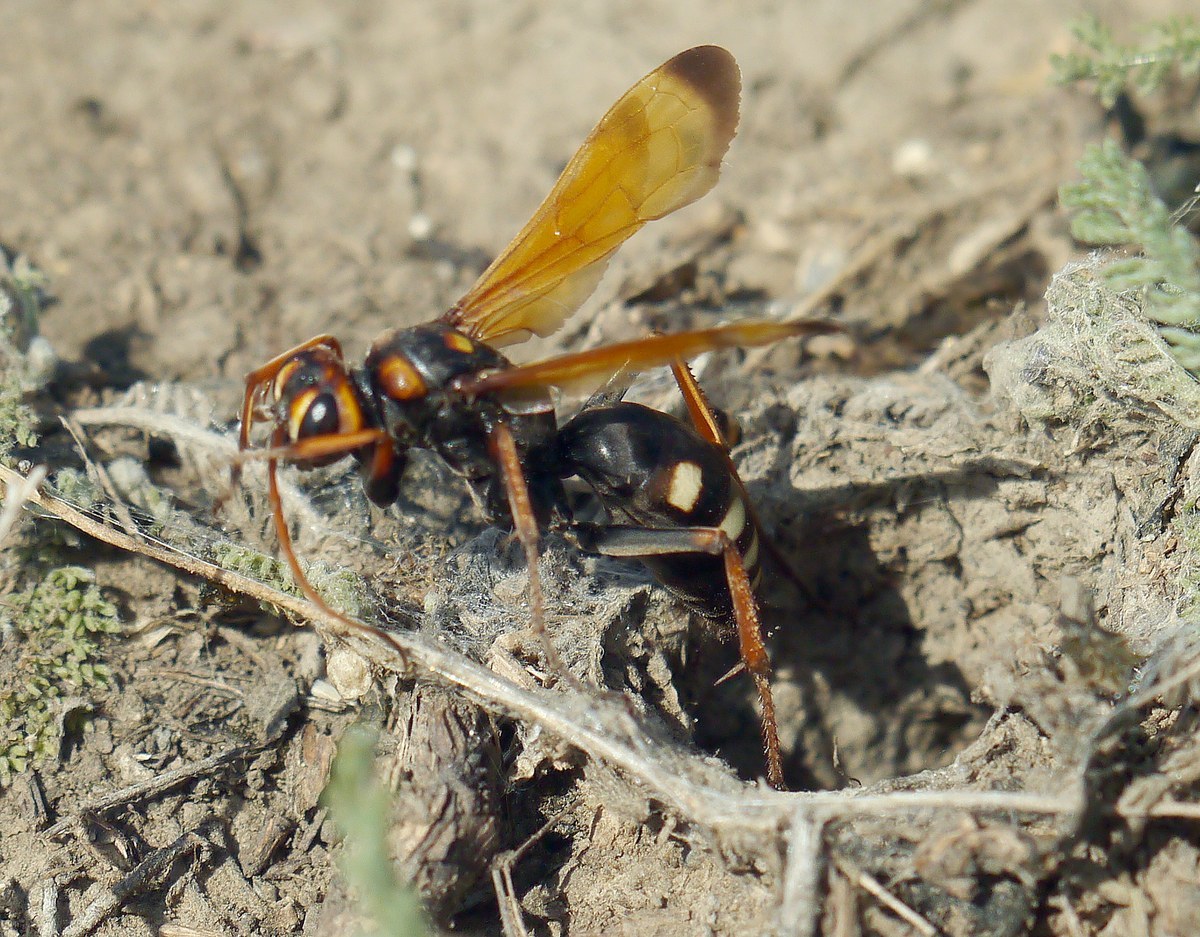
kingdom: Animalia
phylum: Arthropoda
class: Insecta
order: Hymenoptera
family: Pompilidae
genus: Cryptocheilus
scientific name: Cryptocheilus octomaculatus
